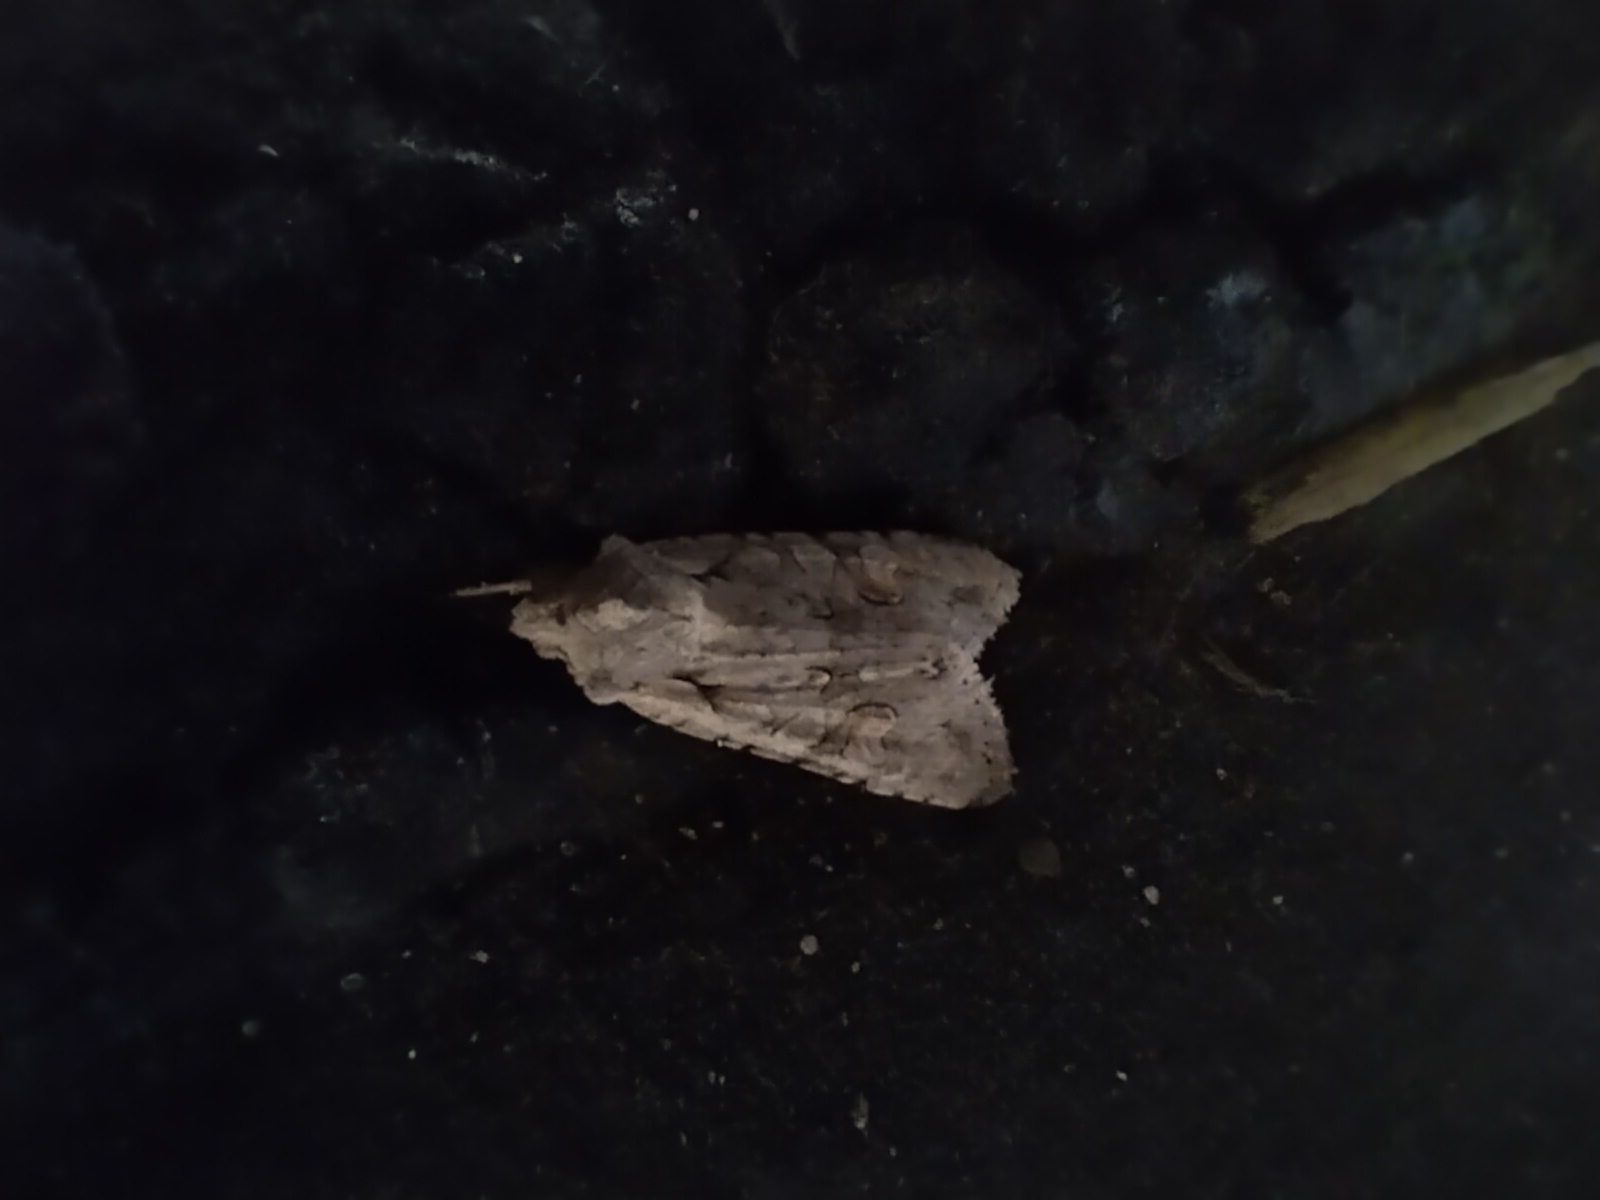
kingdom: Animalia
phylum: Arthropoda
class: Insecta
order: Lepidoptera
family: Noctuidae
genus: Lithophane
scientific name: Lithophane ornitopus
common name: Grey shoulder-knot
